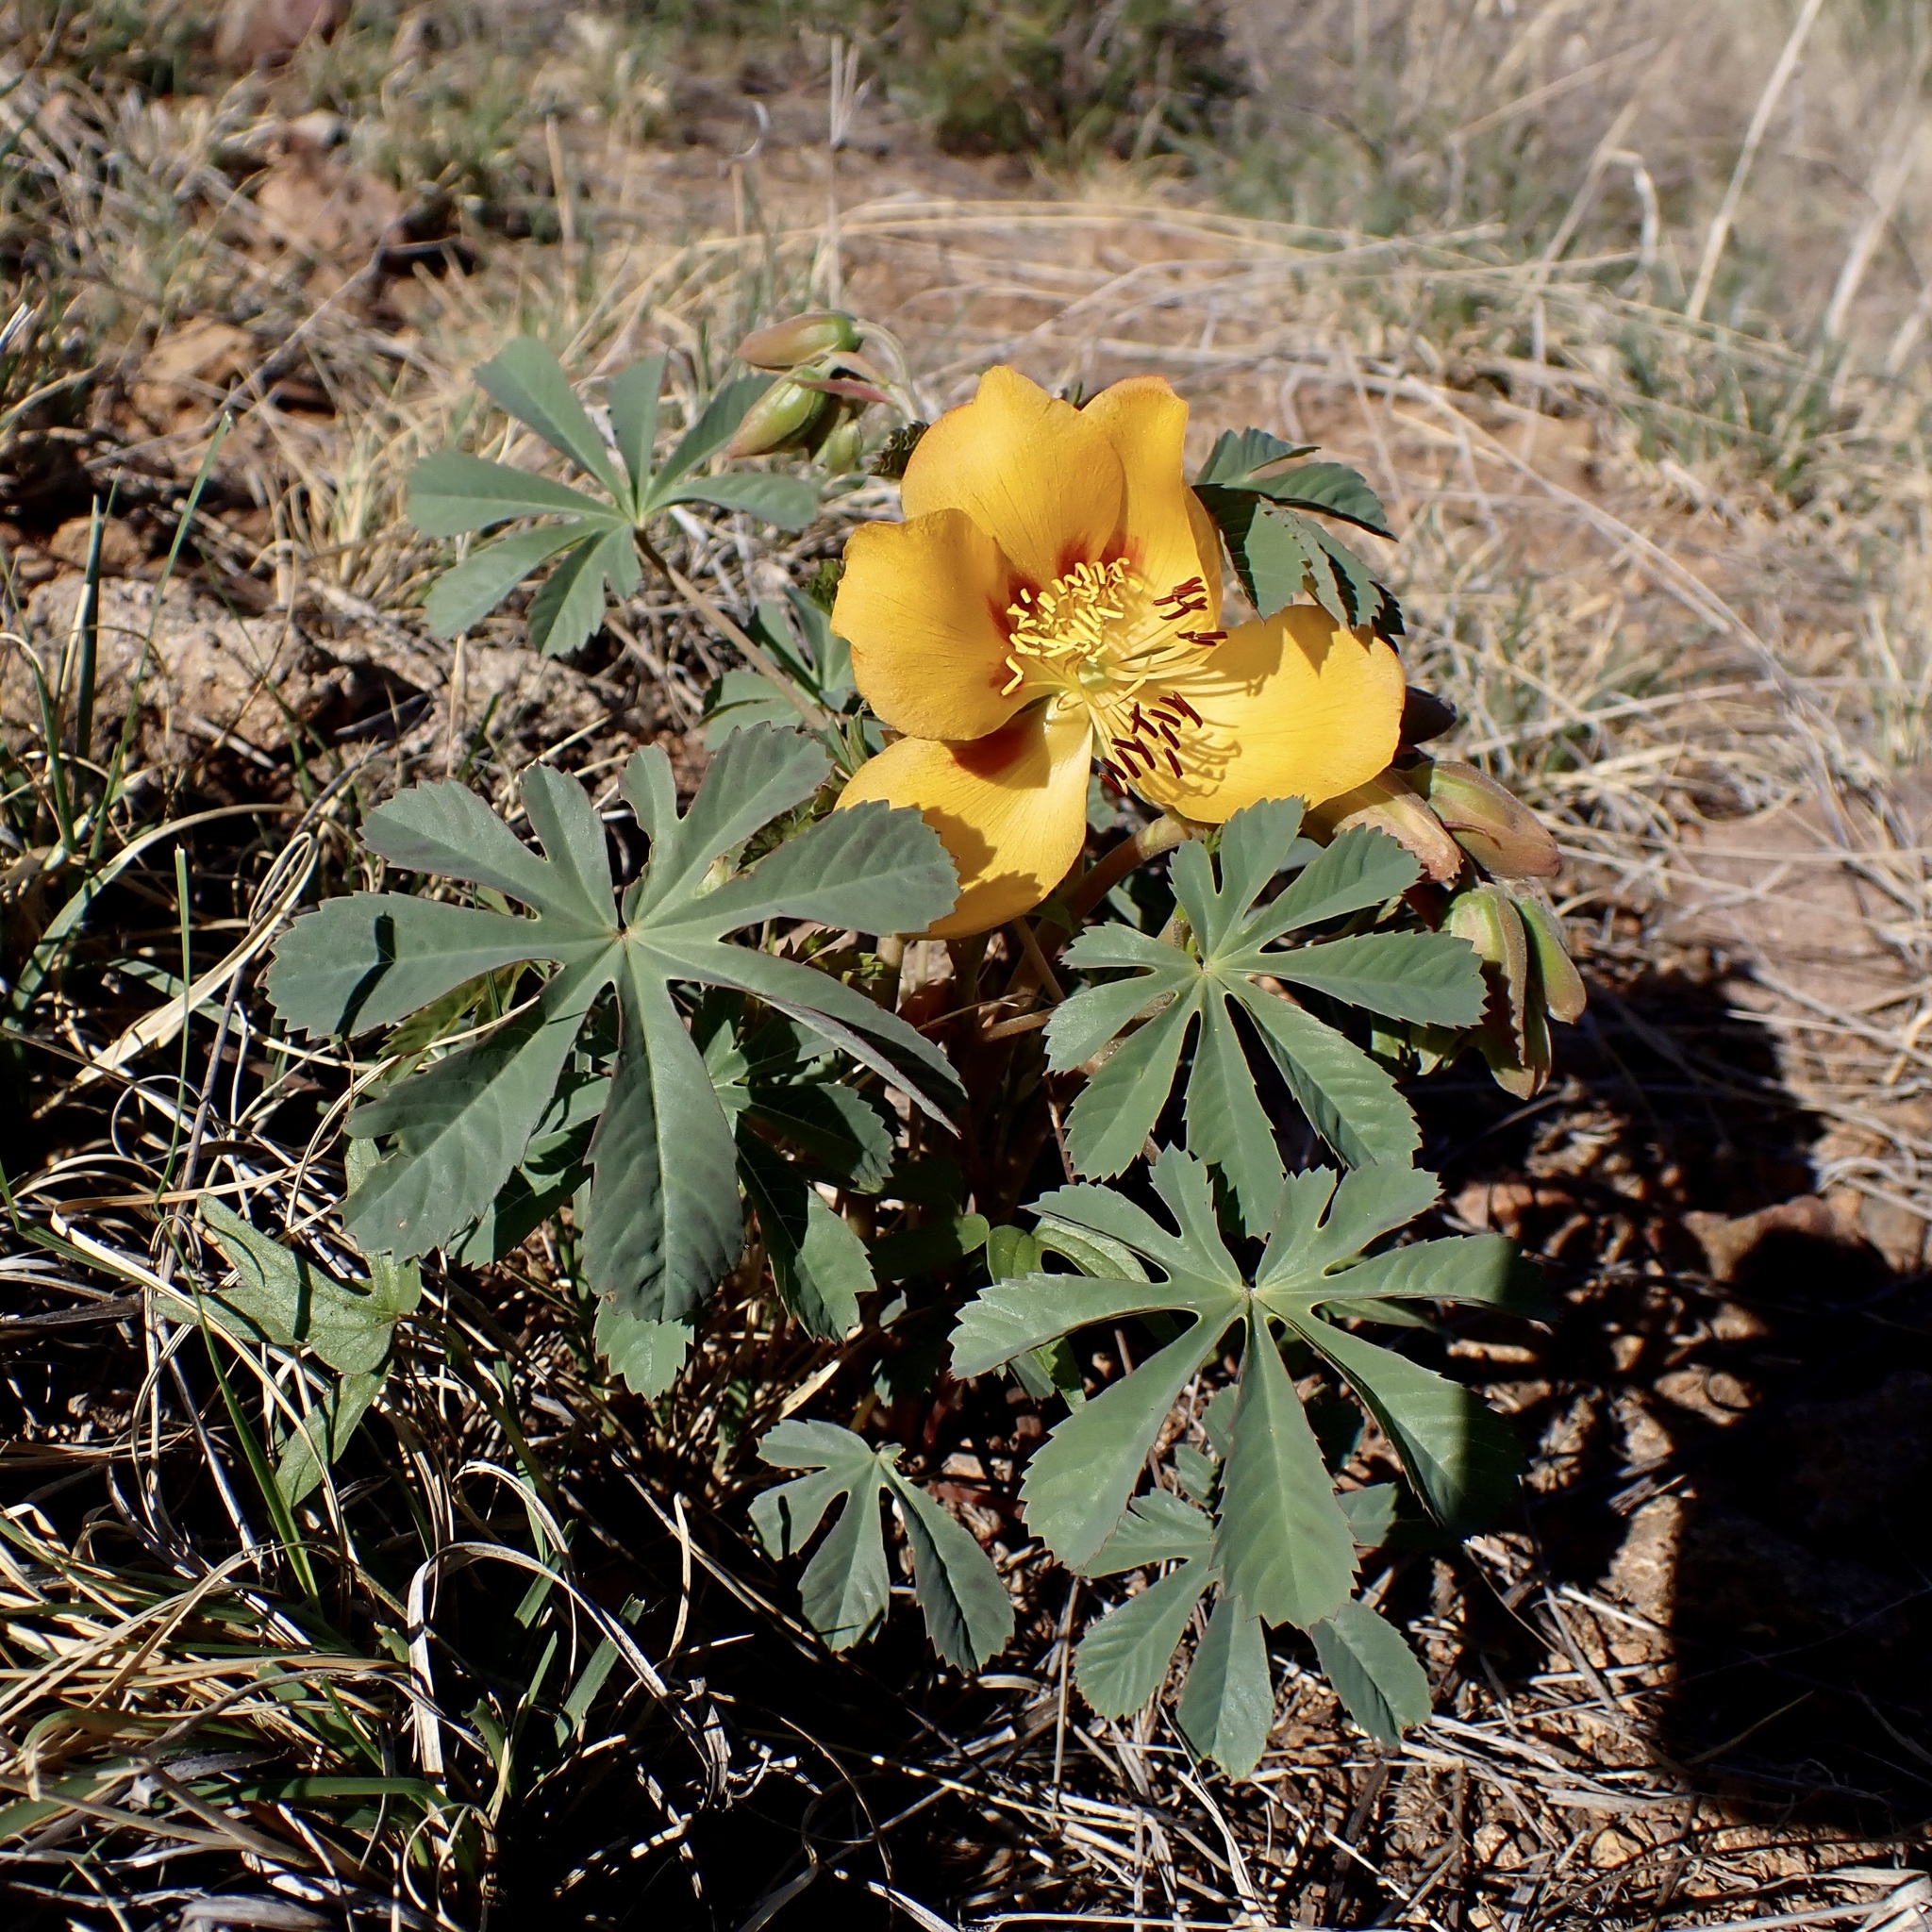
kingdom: Plantae
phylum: Tracheophyta
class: Magnoliopsida
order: Malvales
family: Cochlospermaceae
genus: Cochlospermum
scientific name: Cochlospermum palmatifidum
